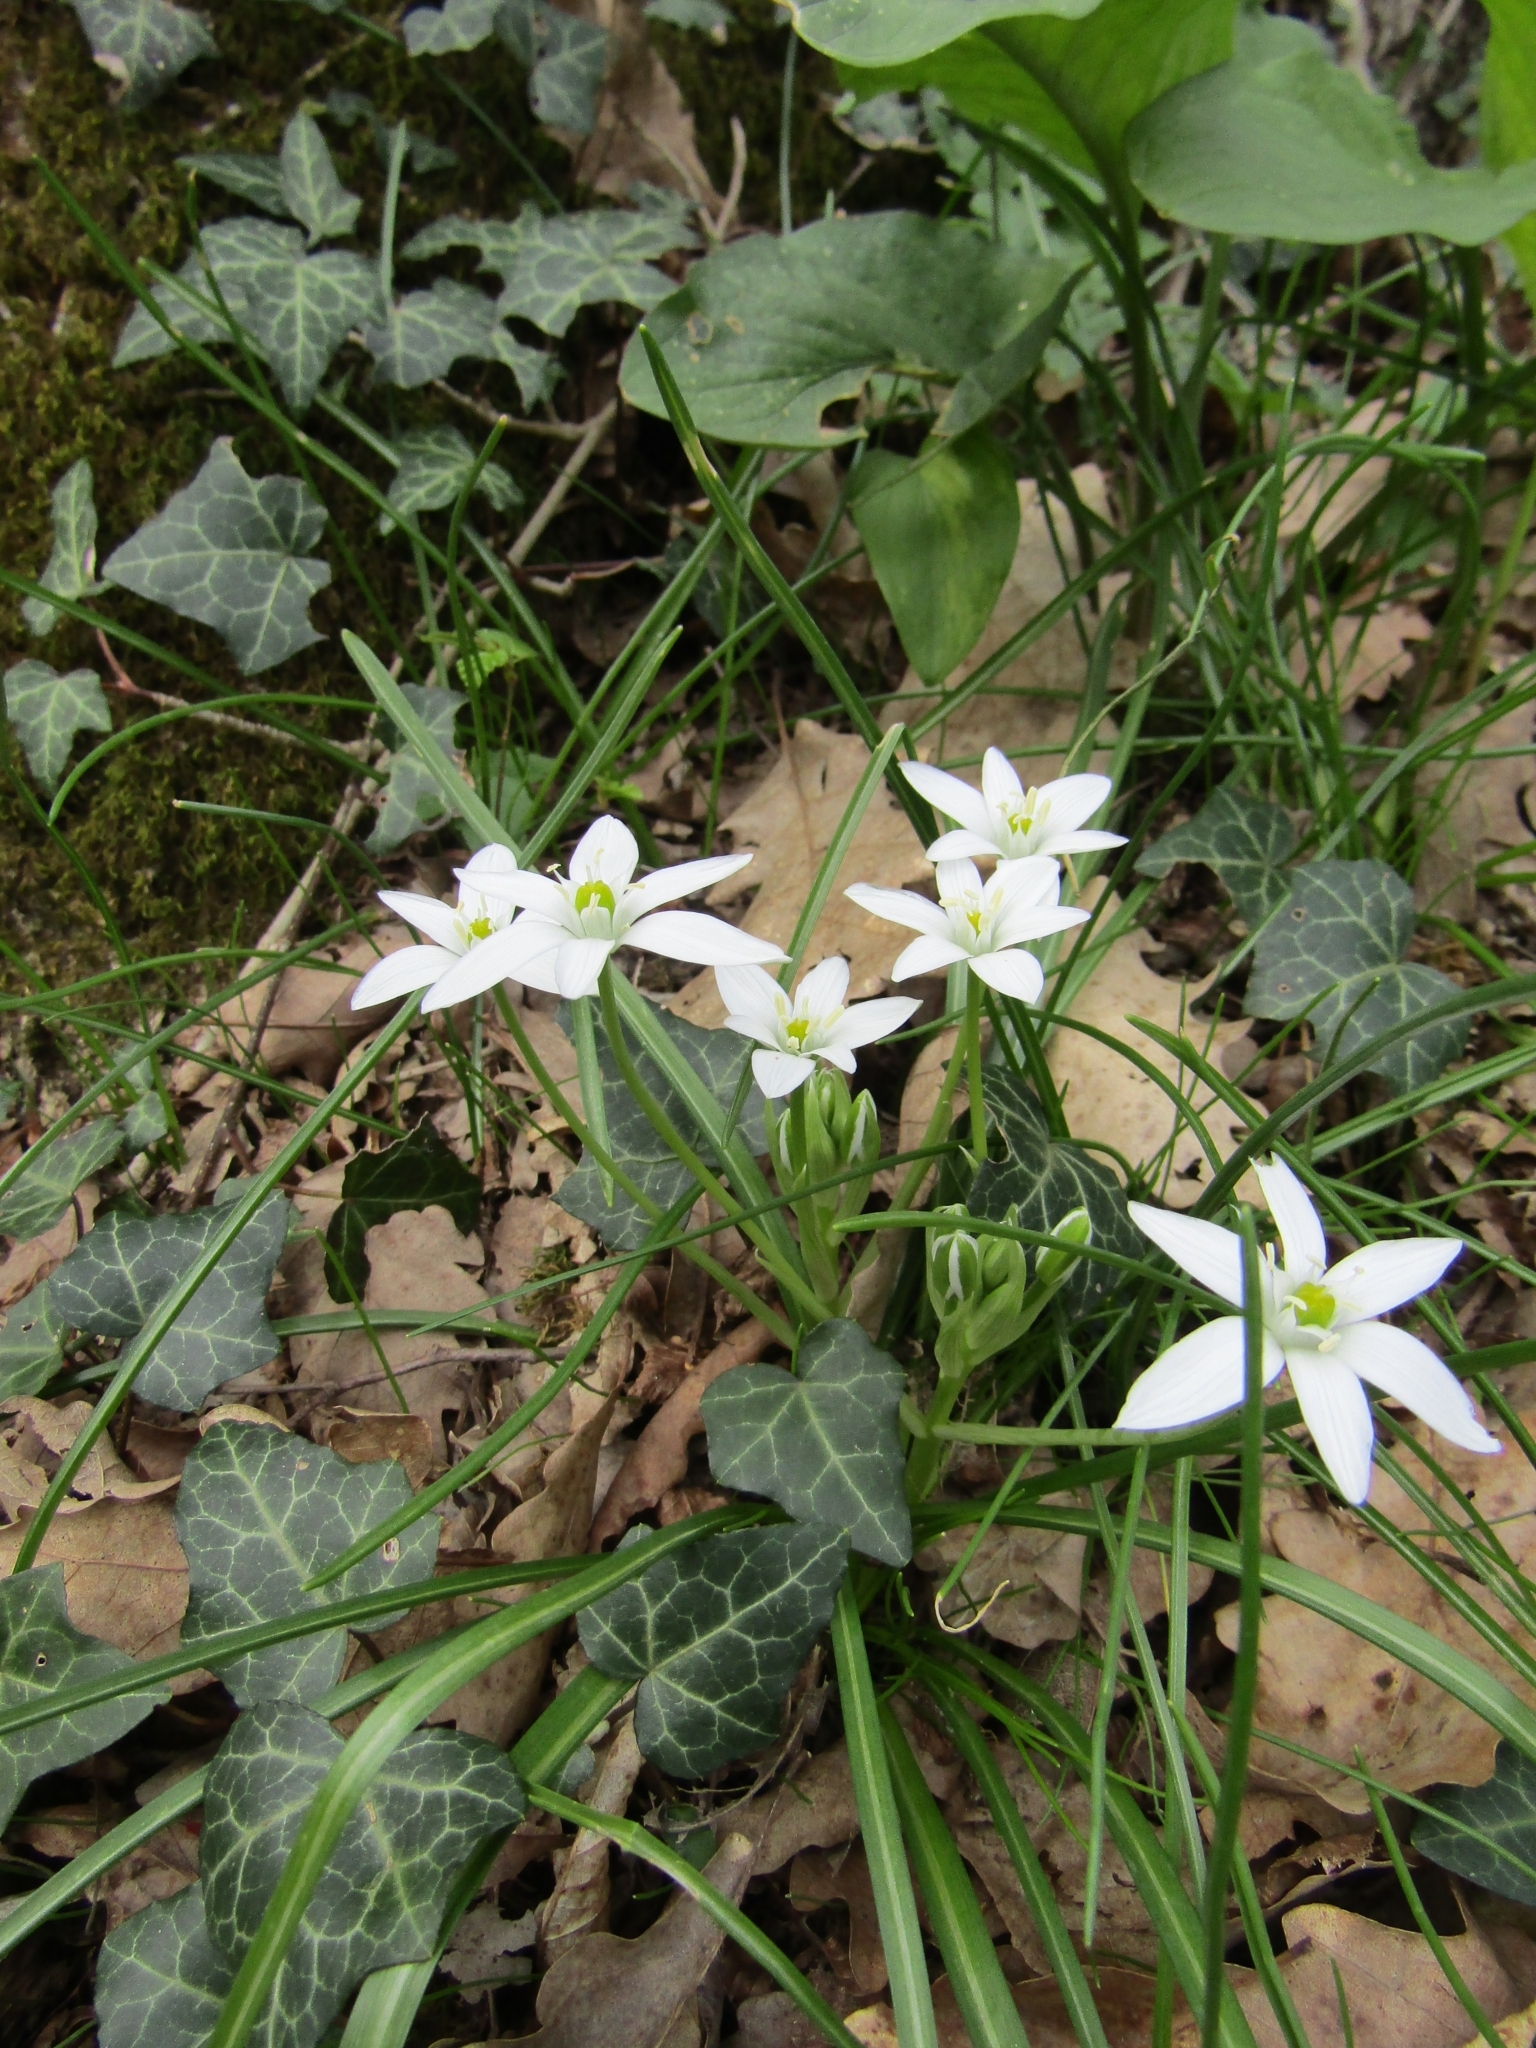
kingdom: Plantae
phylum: Tracheophyta
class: Liliopsida
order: Asparagales
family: Asparagaceae
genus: Ornithogalum
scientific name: Ornithogalum woronowii
